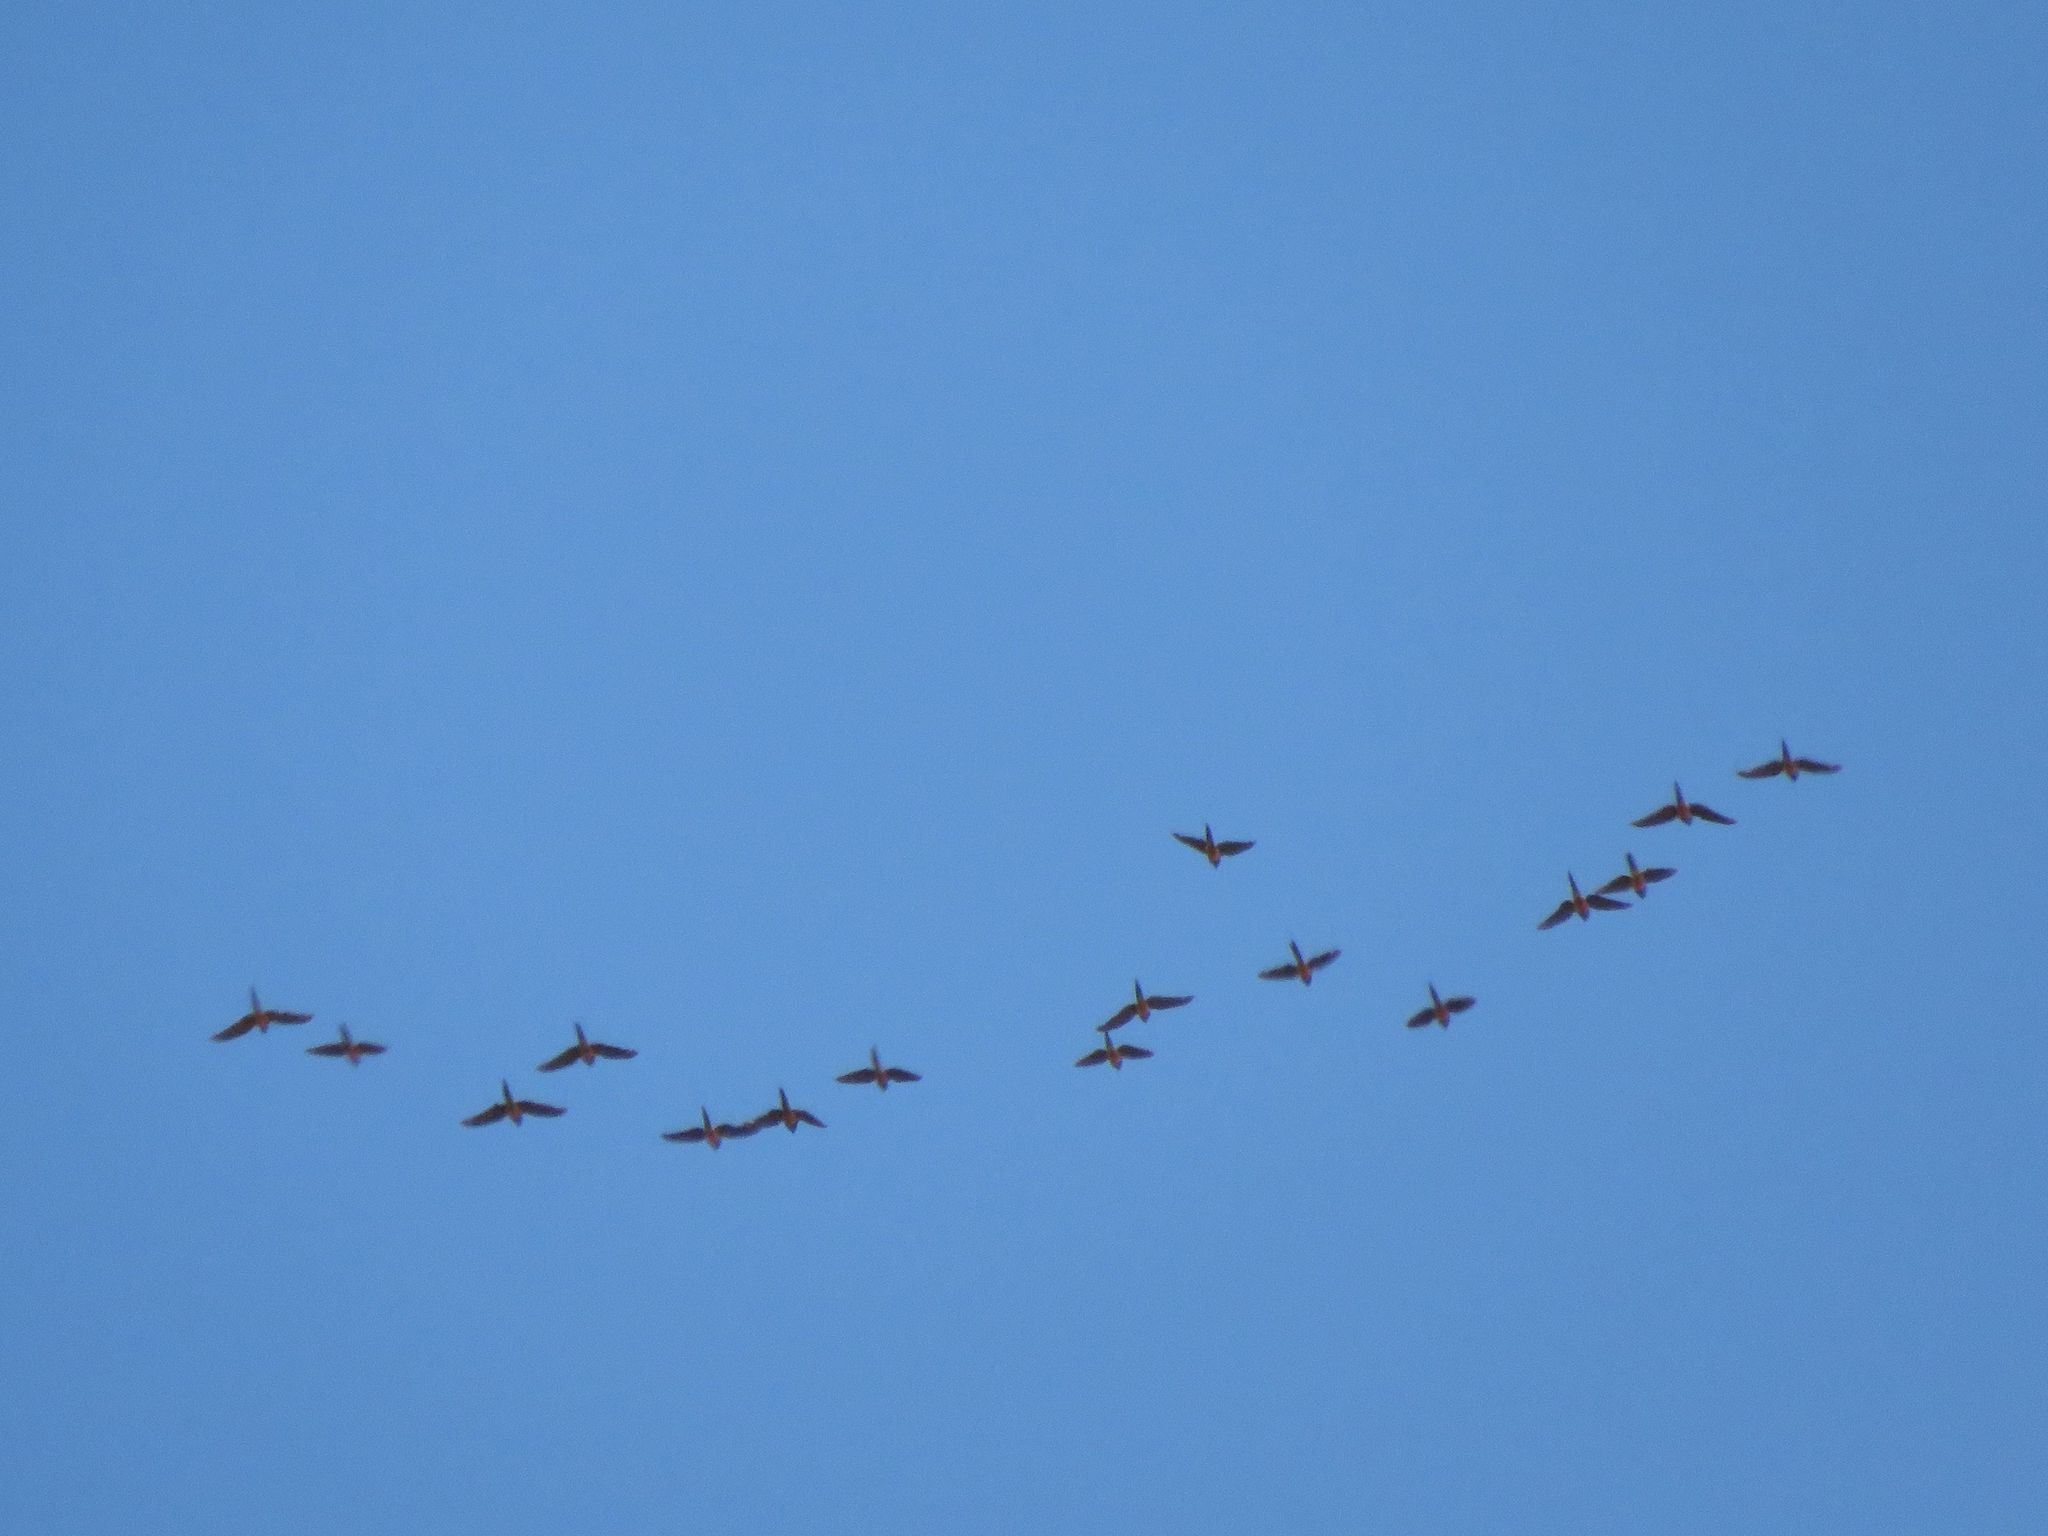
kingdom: Animalia
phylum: Chordata
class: Aves
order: Psittaciformes
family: Psittacidae
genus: Cyanoliseus
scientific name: Cyanoliseus patagonus
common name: Burrowing parrot
